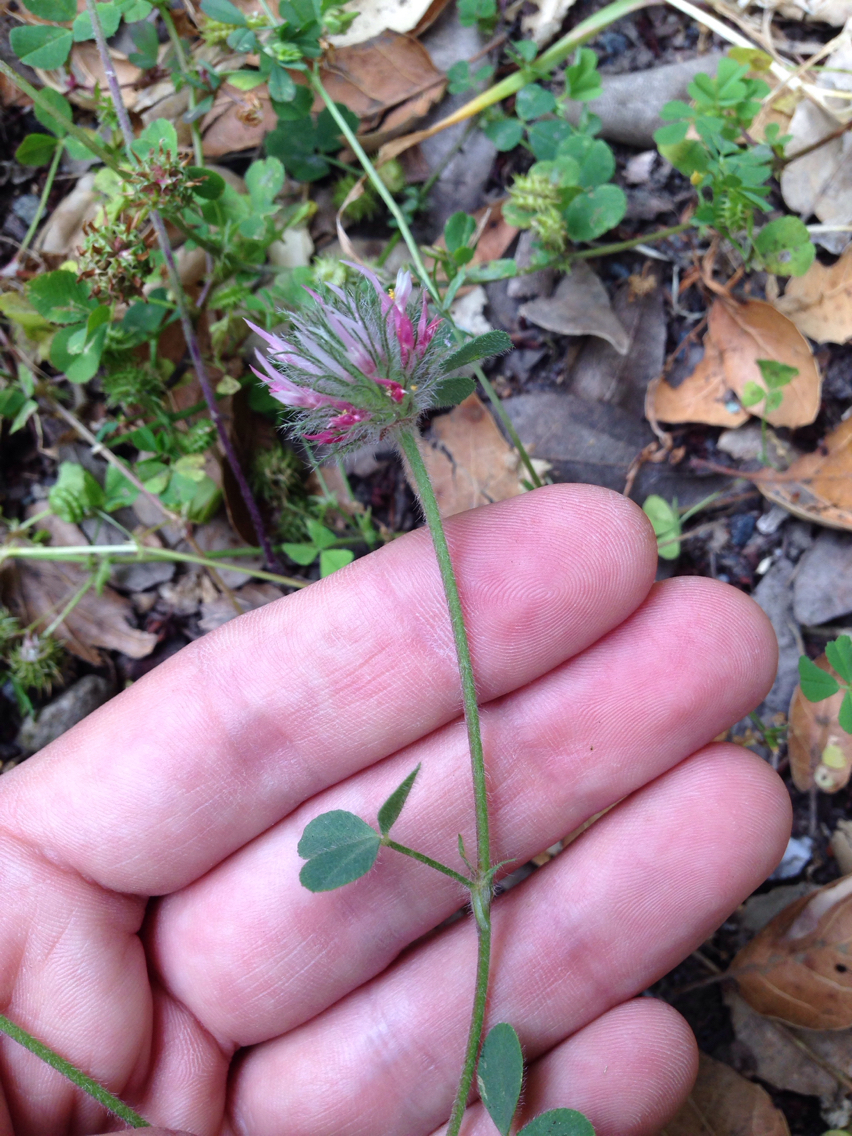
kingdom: Plantae
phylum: Tracheophyta
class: Magnoliopsida
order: Fabales
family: Fabaceae
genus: Trifolium
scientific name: Trifolium hirtum
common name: Rose clover
